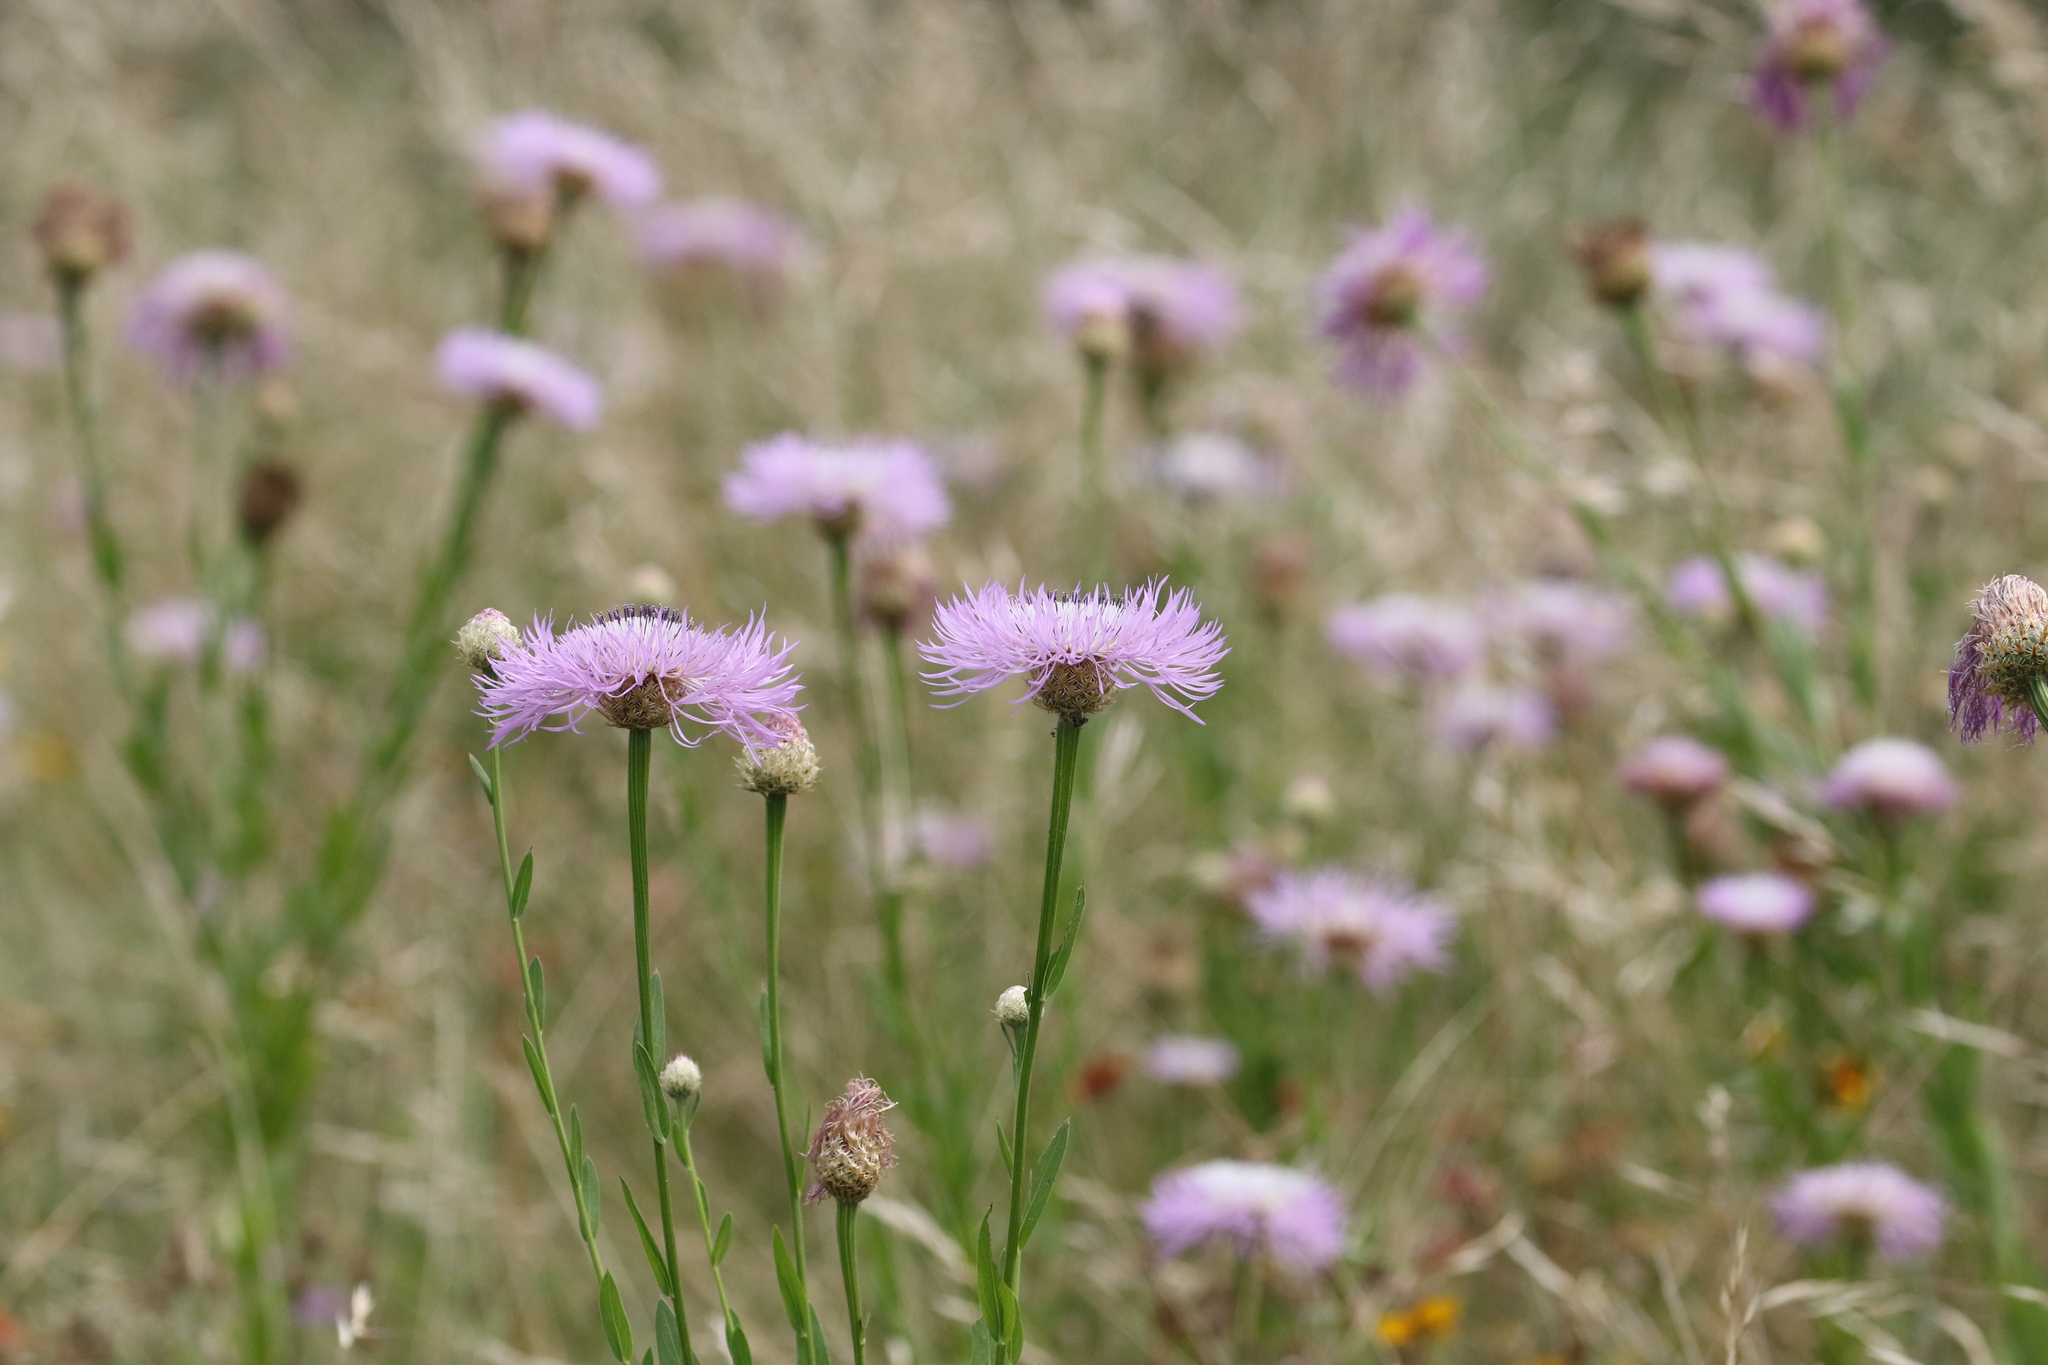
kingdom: Plantae
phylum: Tracheophyta
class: Magnoliopsida
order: Asterales
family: Asteraceae
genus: Plectocephalus
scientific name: Plectocephalus americanus
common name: American basket-flower
